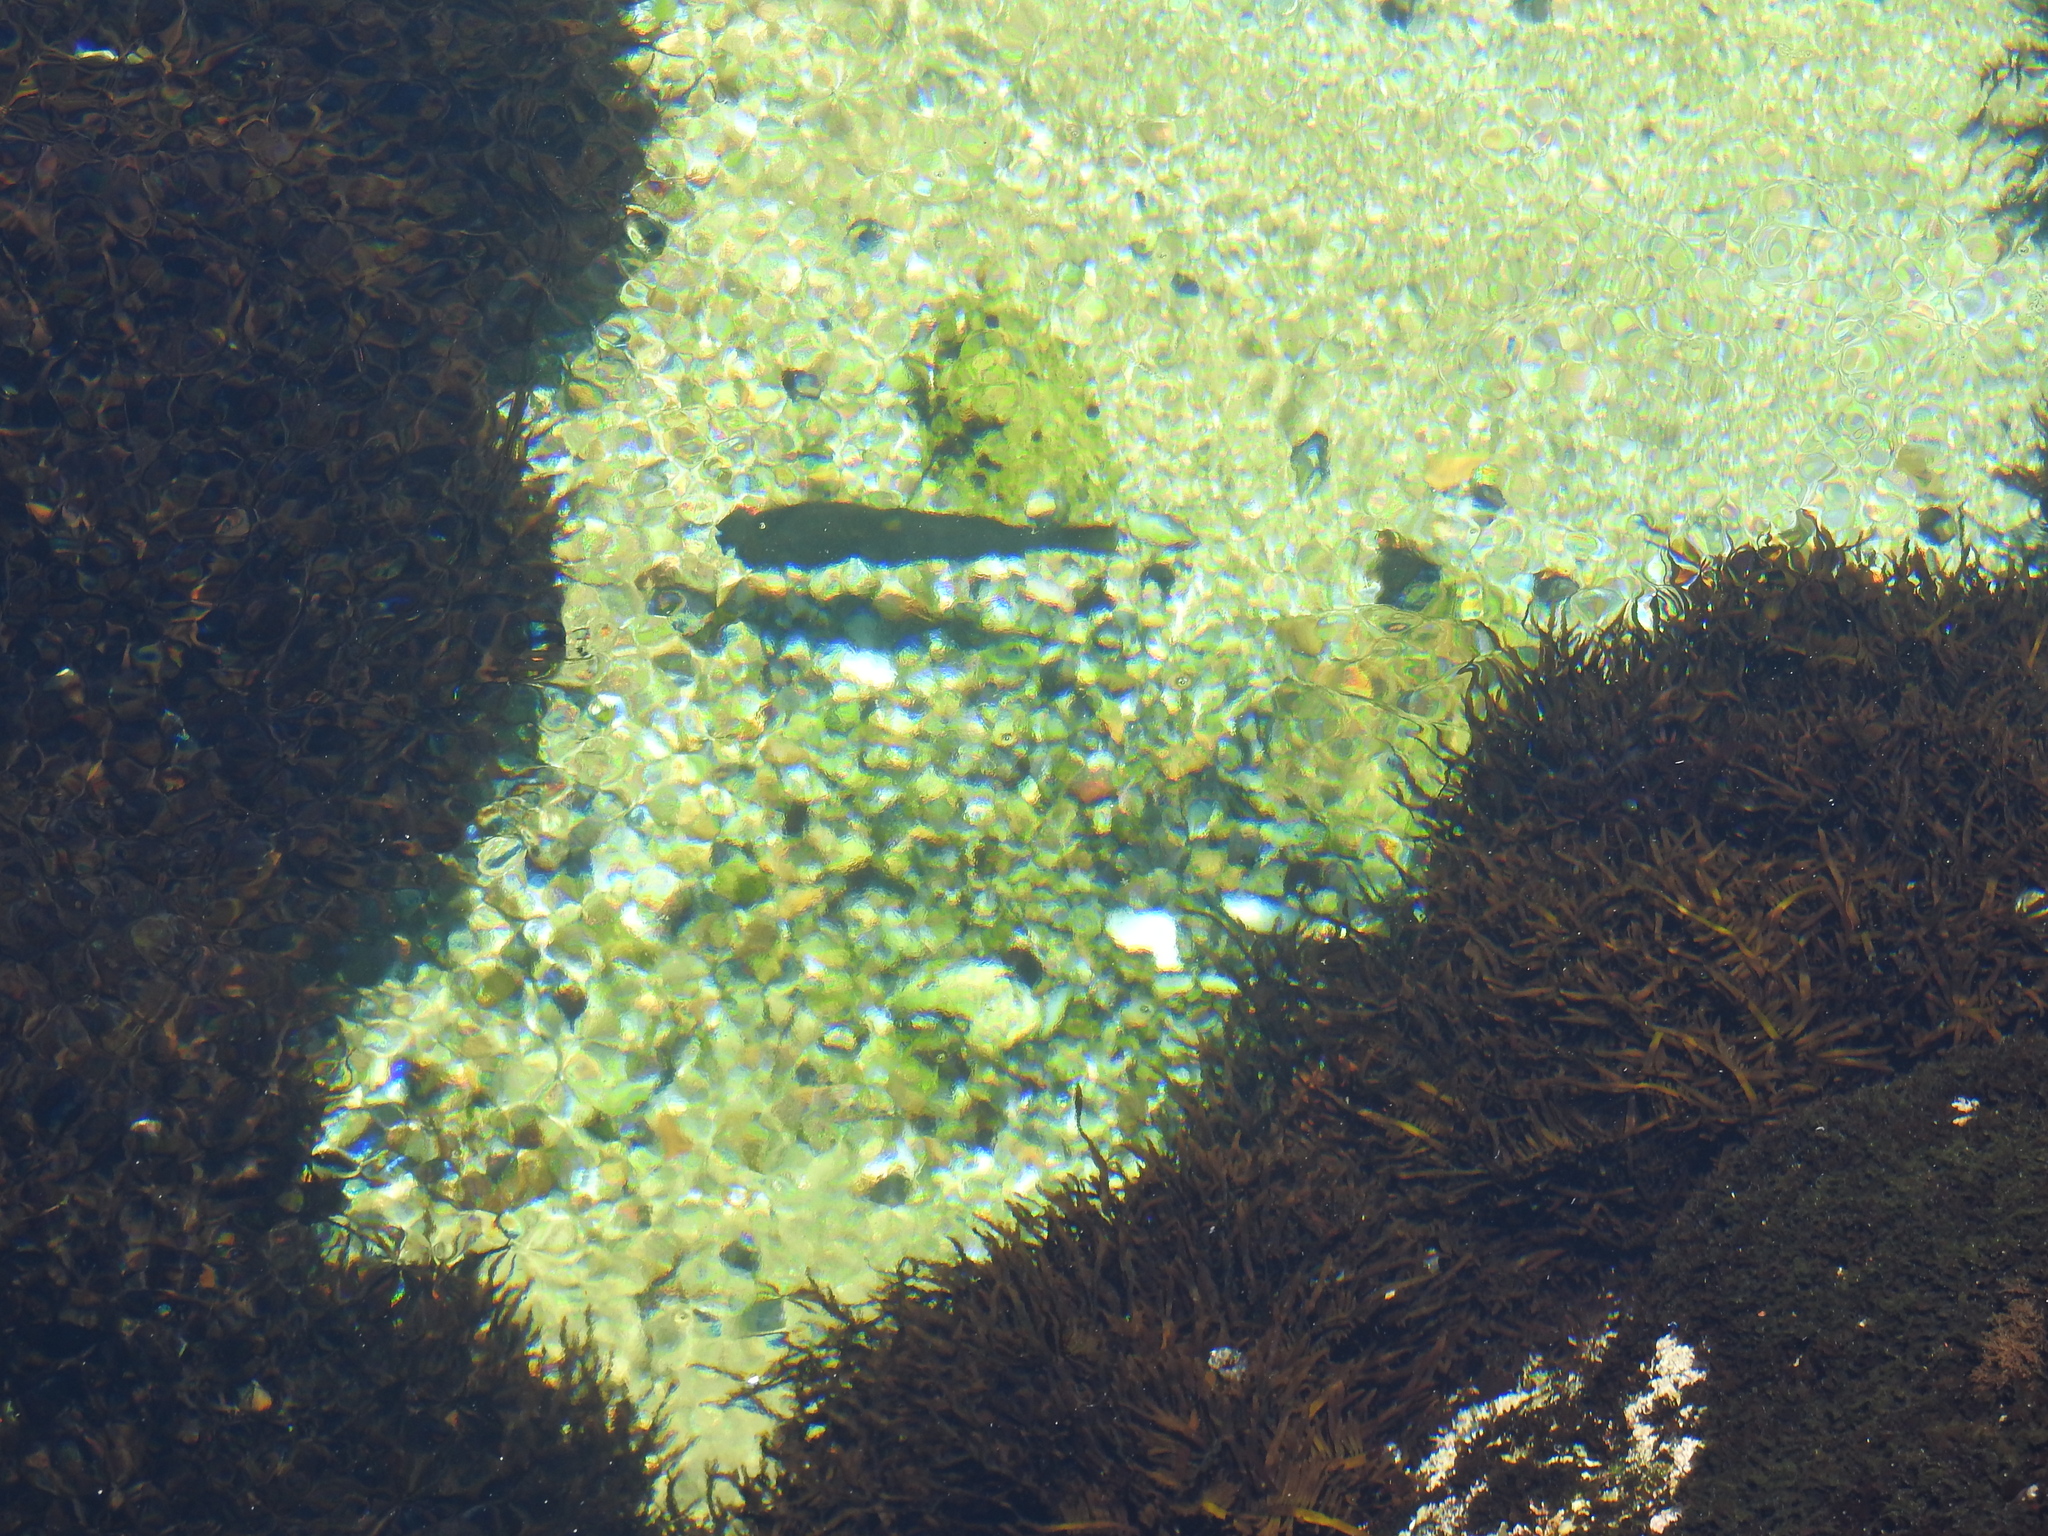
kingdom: Animalia
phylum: Chordata
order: Perciformes
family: Kyphosidae
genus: Girella
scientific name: Girella nigricans
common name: Opaleye
